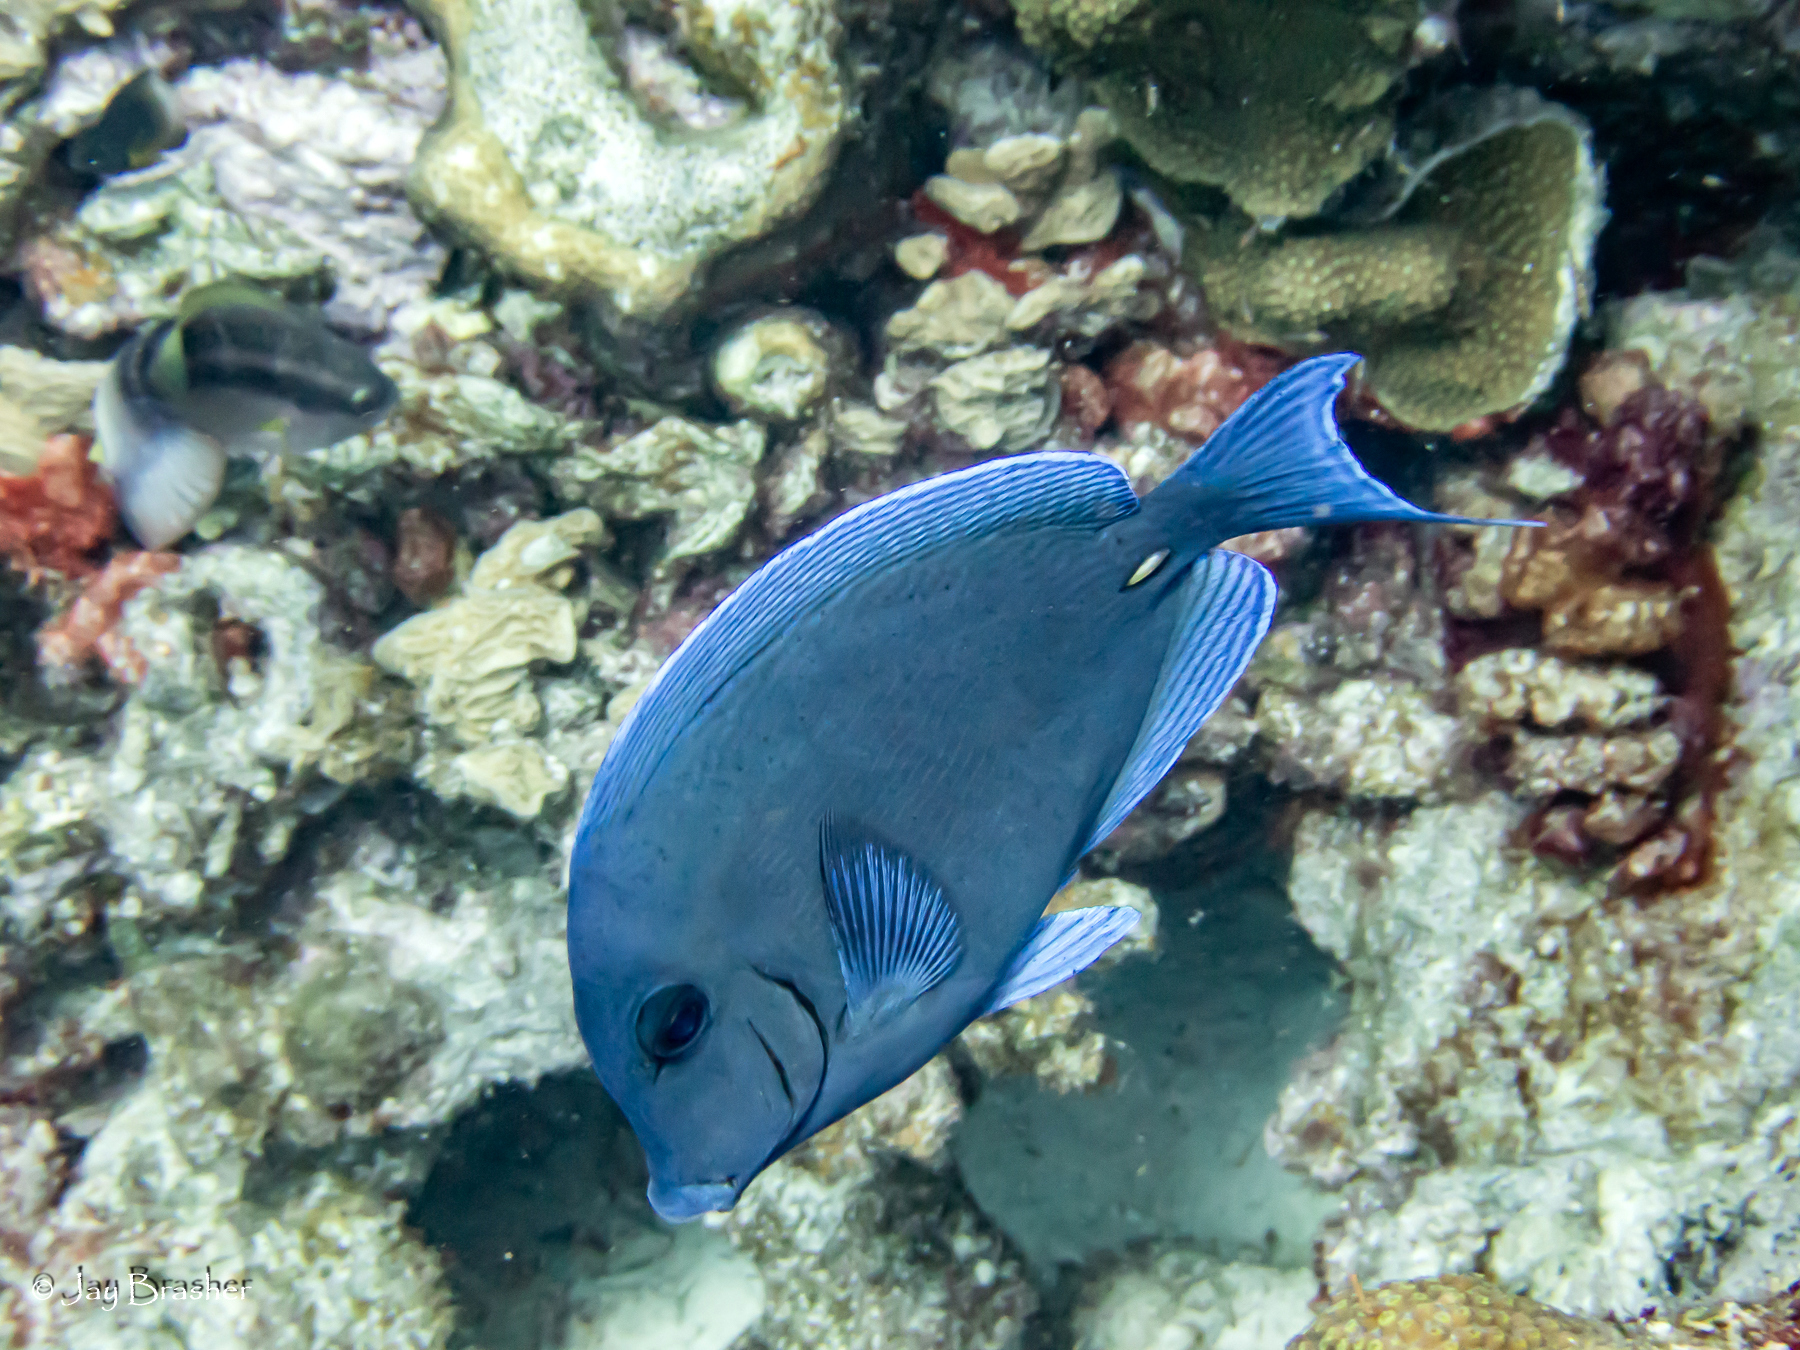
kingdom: Animalia
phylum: Chordata
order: Perciformes
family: Acanthuridae
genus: Acanthurus
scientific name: Acanthurus coeruleus
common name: Blue tang
